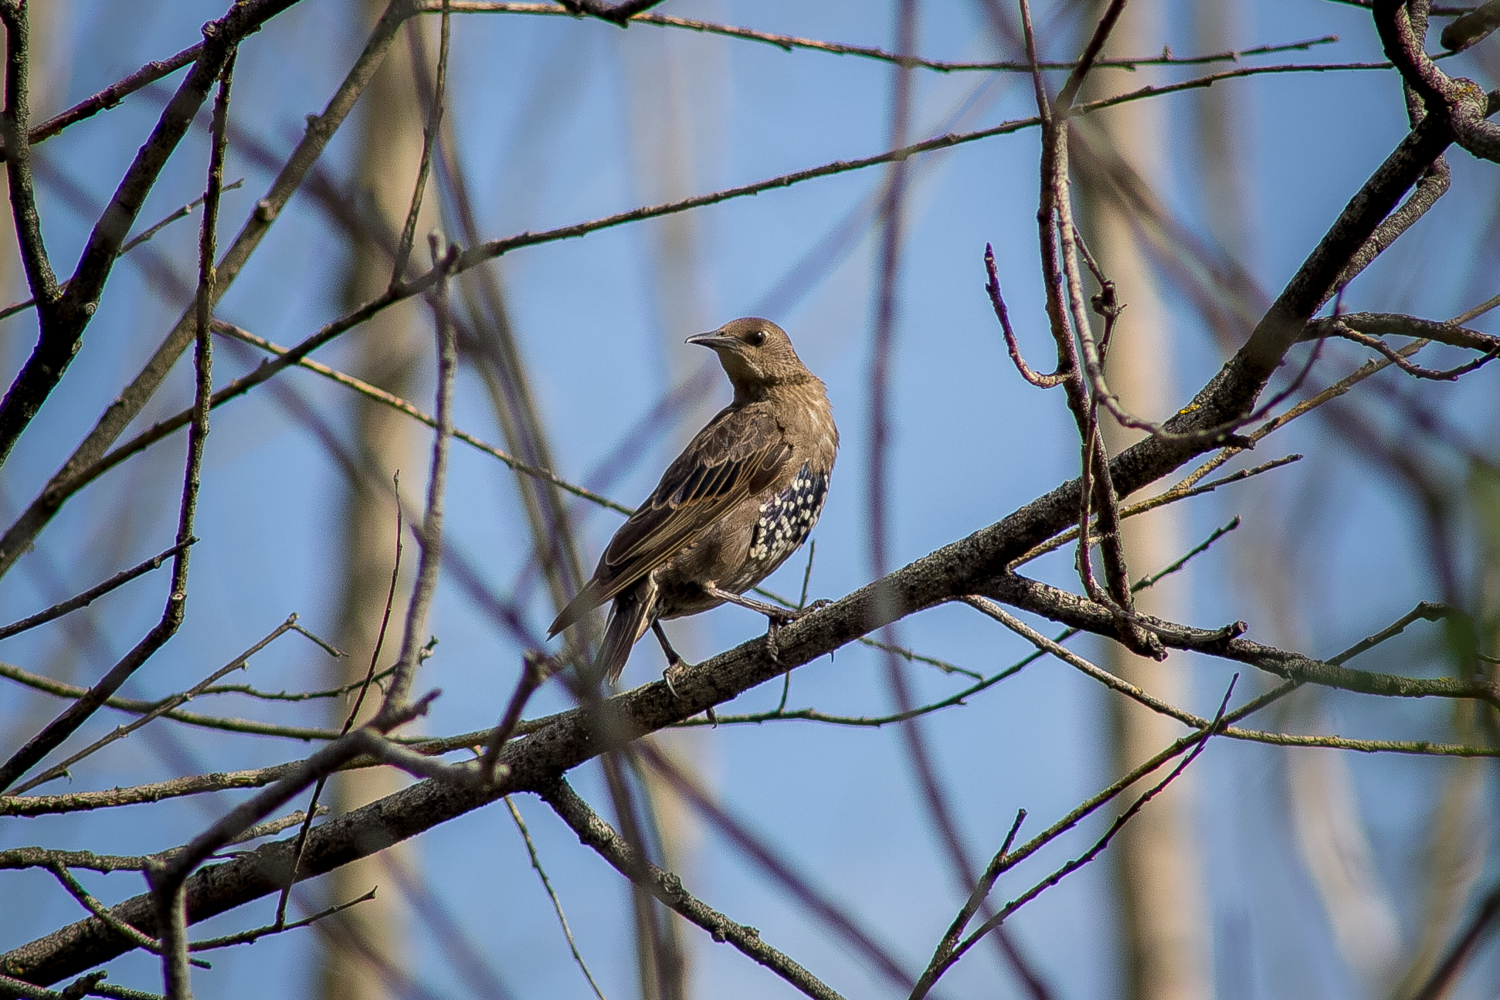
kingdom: Animalia
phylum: Chordata
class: Aves
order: Passeriformes
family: Sturnidae
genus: Sturnus
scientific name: Sturnus vulgaris
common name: Common starling
